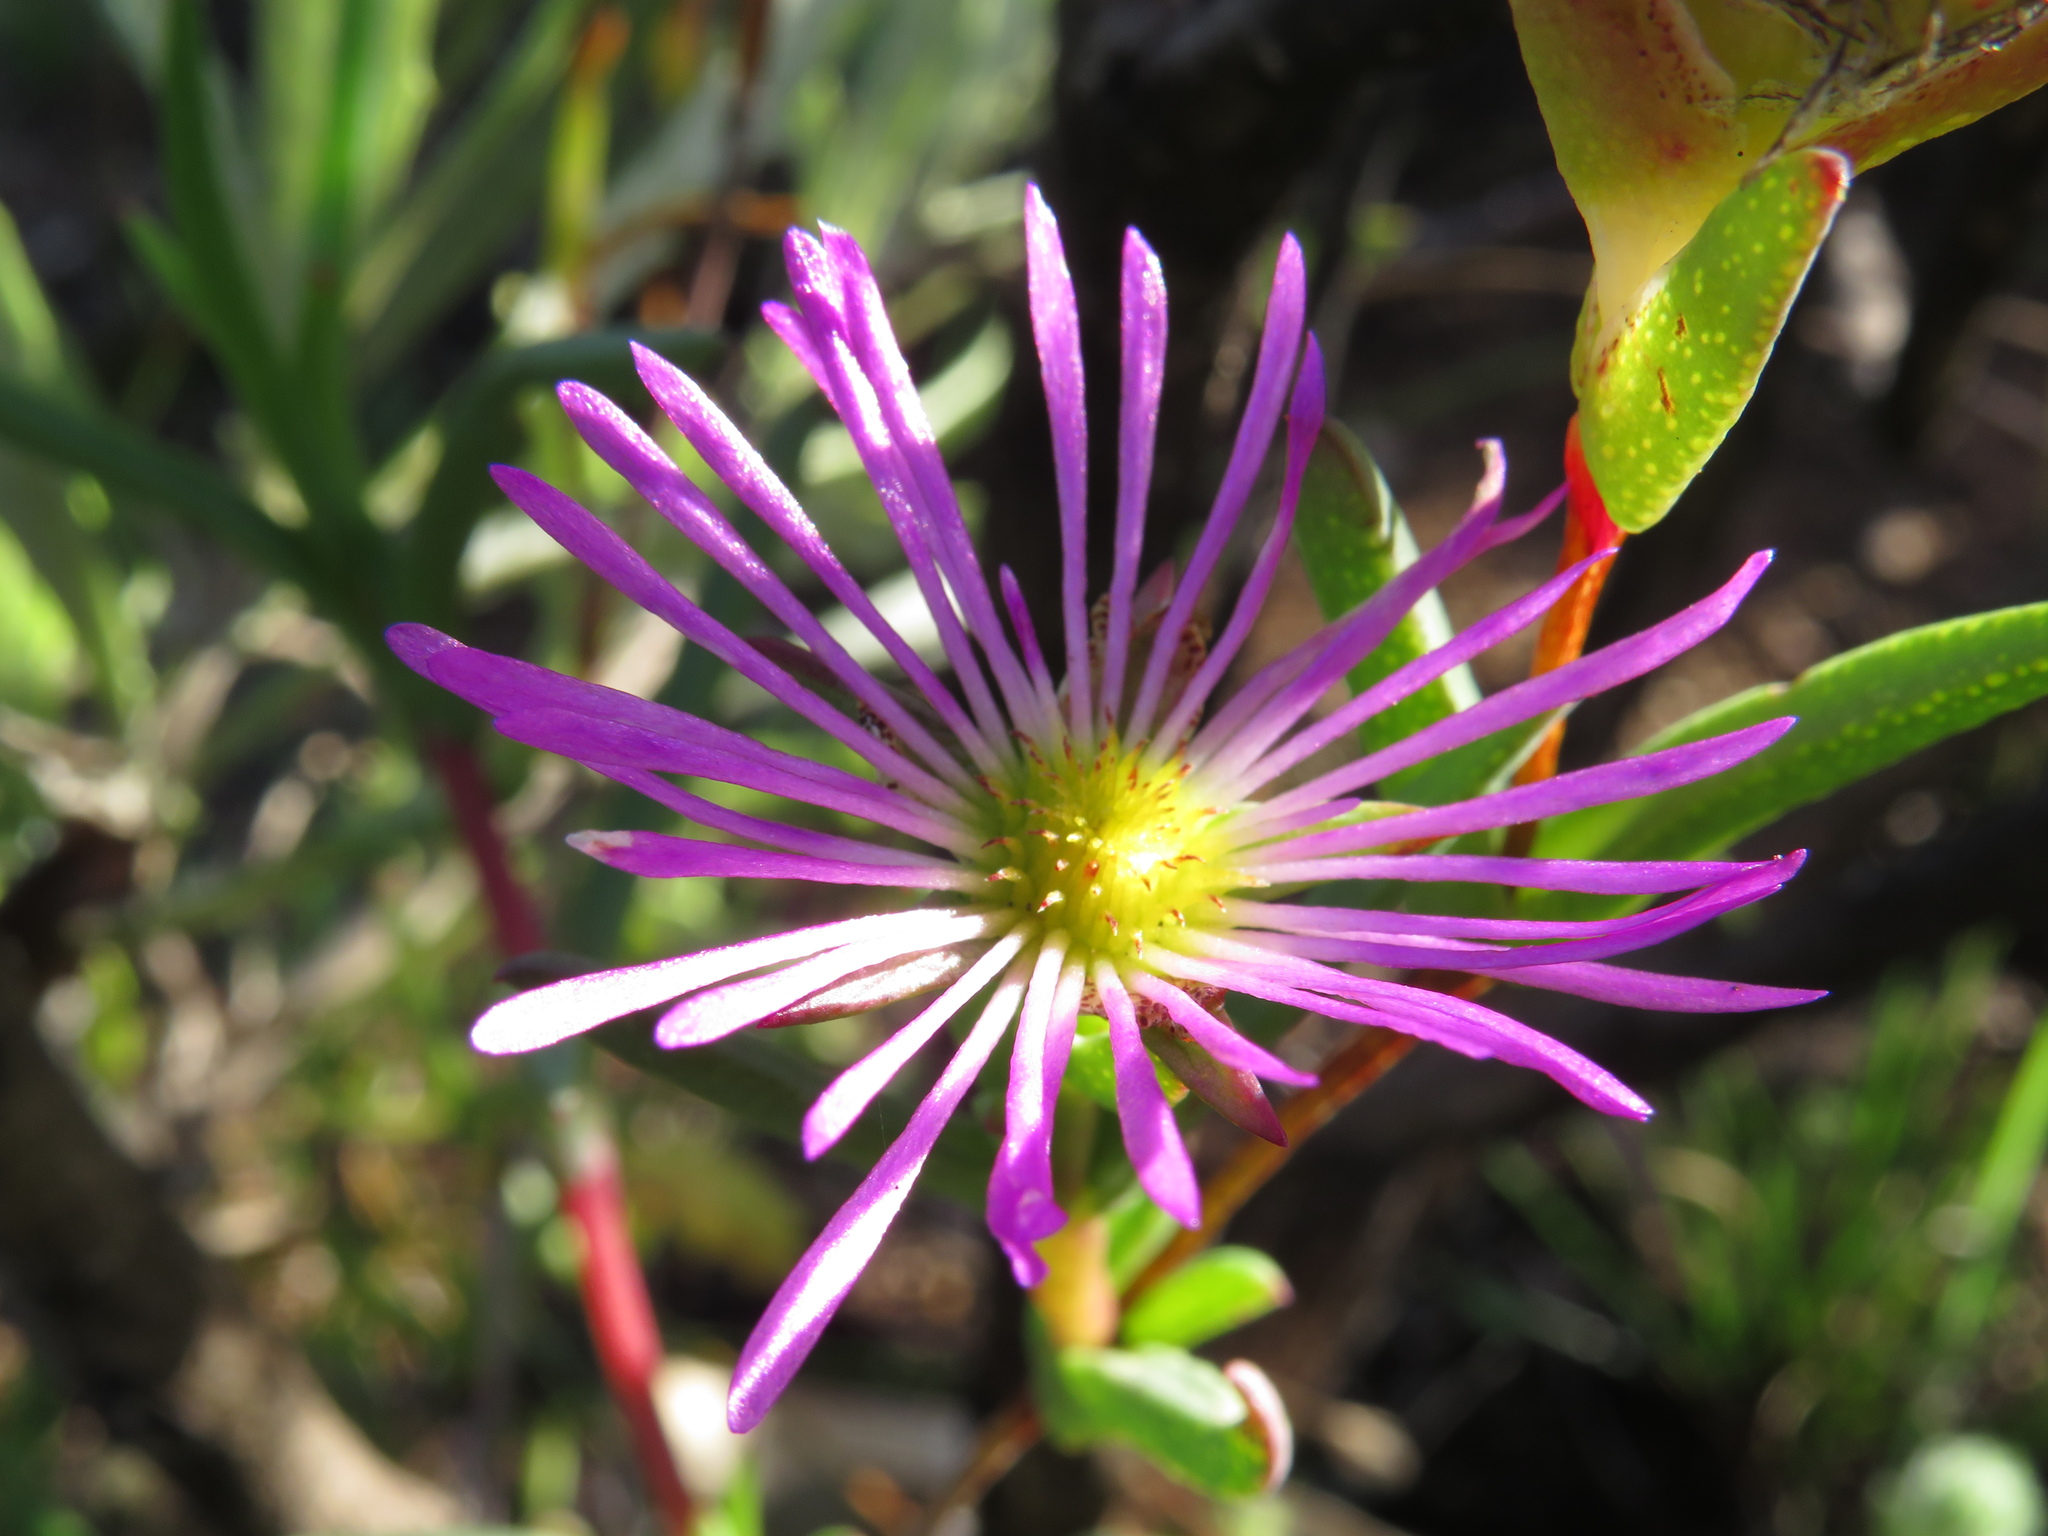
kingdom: Plantae
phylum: Tracheophyta
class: Magnoliopsida
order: Caryophyllales
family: Aizoaceae
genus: Erepsia
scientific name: Erepsia anceps
